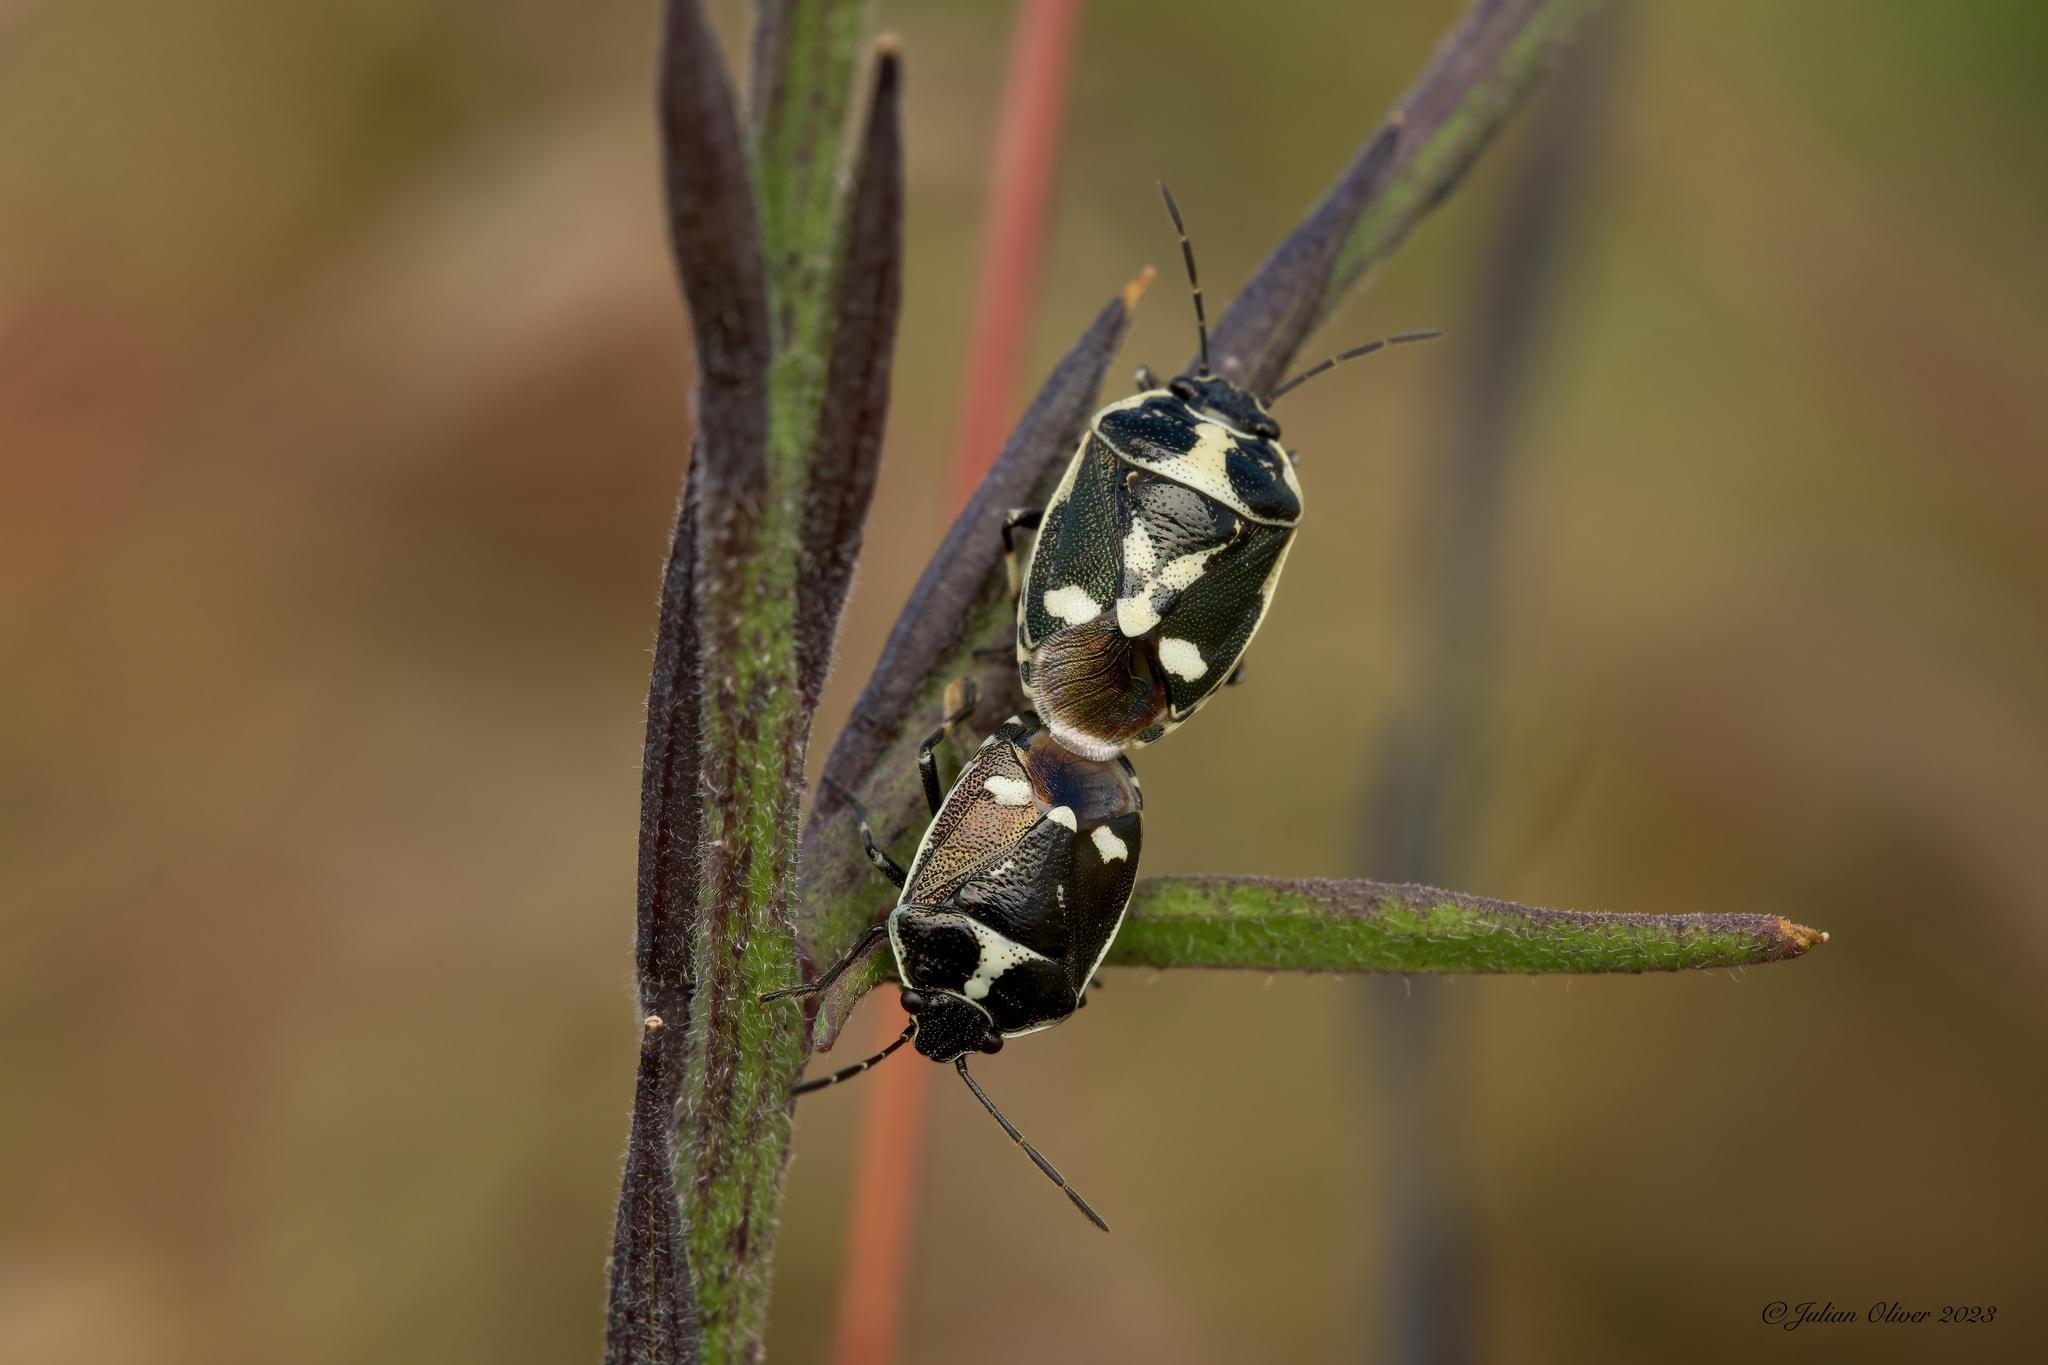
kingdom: Animalia
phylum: Arthropoda
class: Insecta
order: Hemiptera
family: Pentatomidae
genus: Eurydema
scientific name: Eurydema oleracea
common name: Cabbage bug
